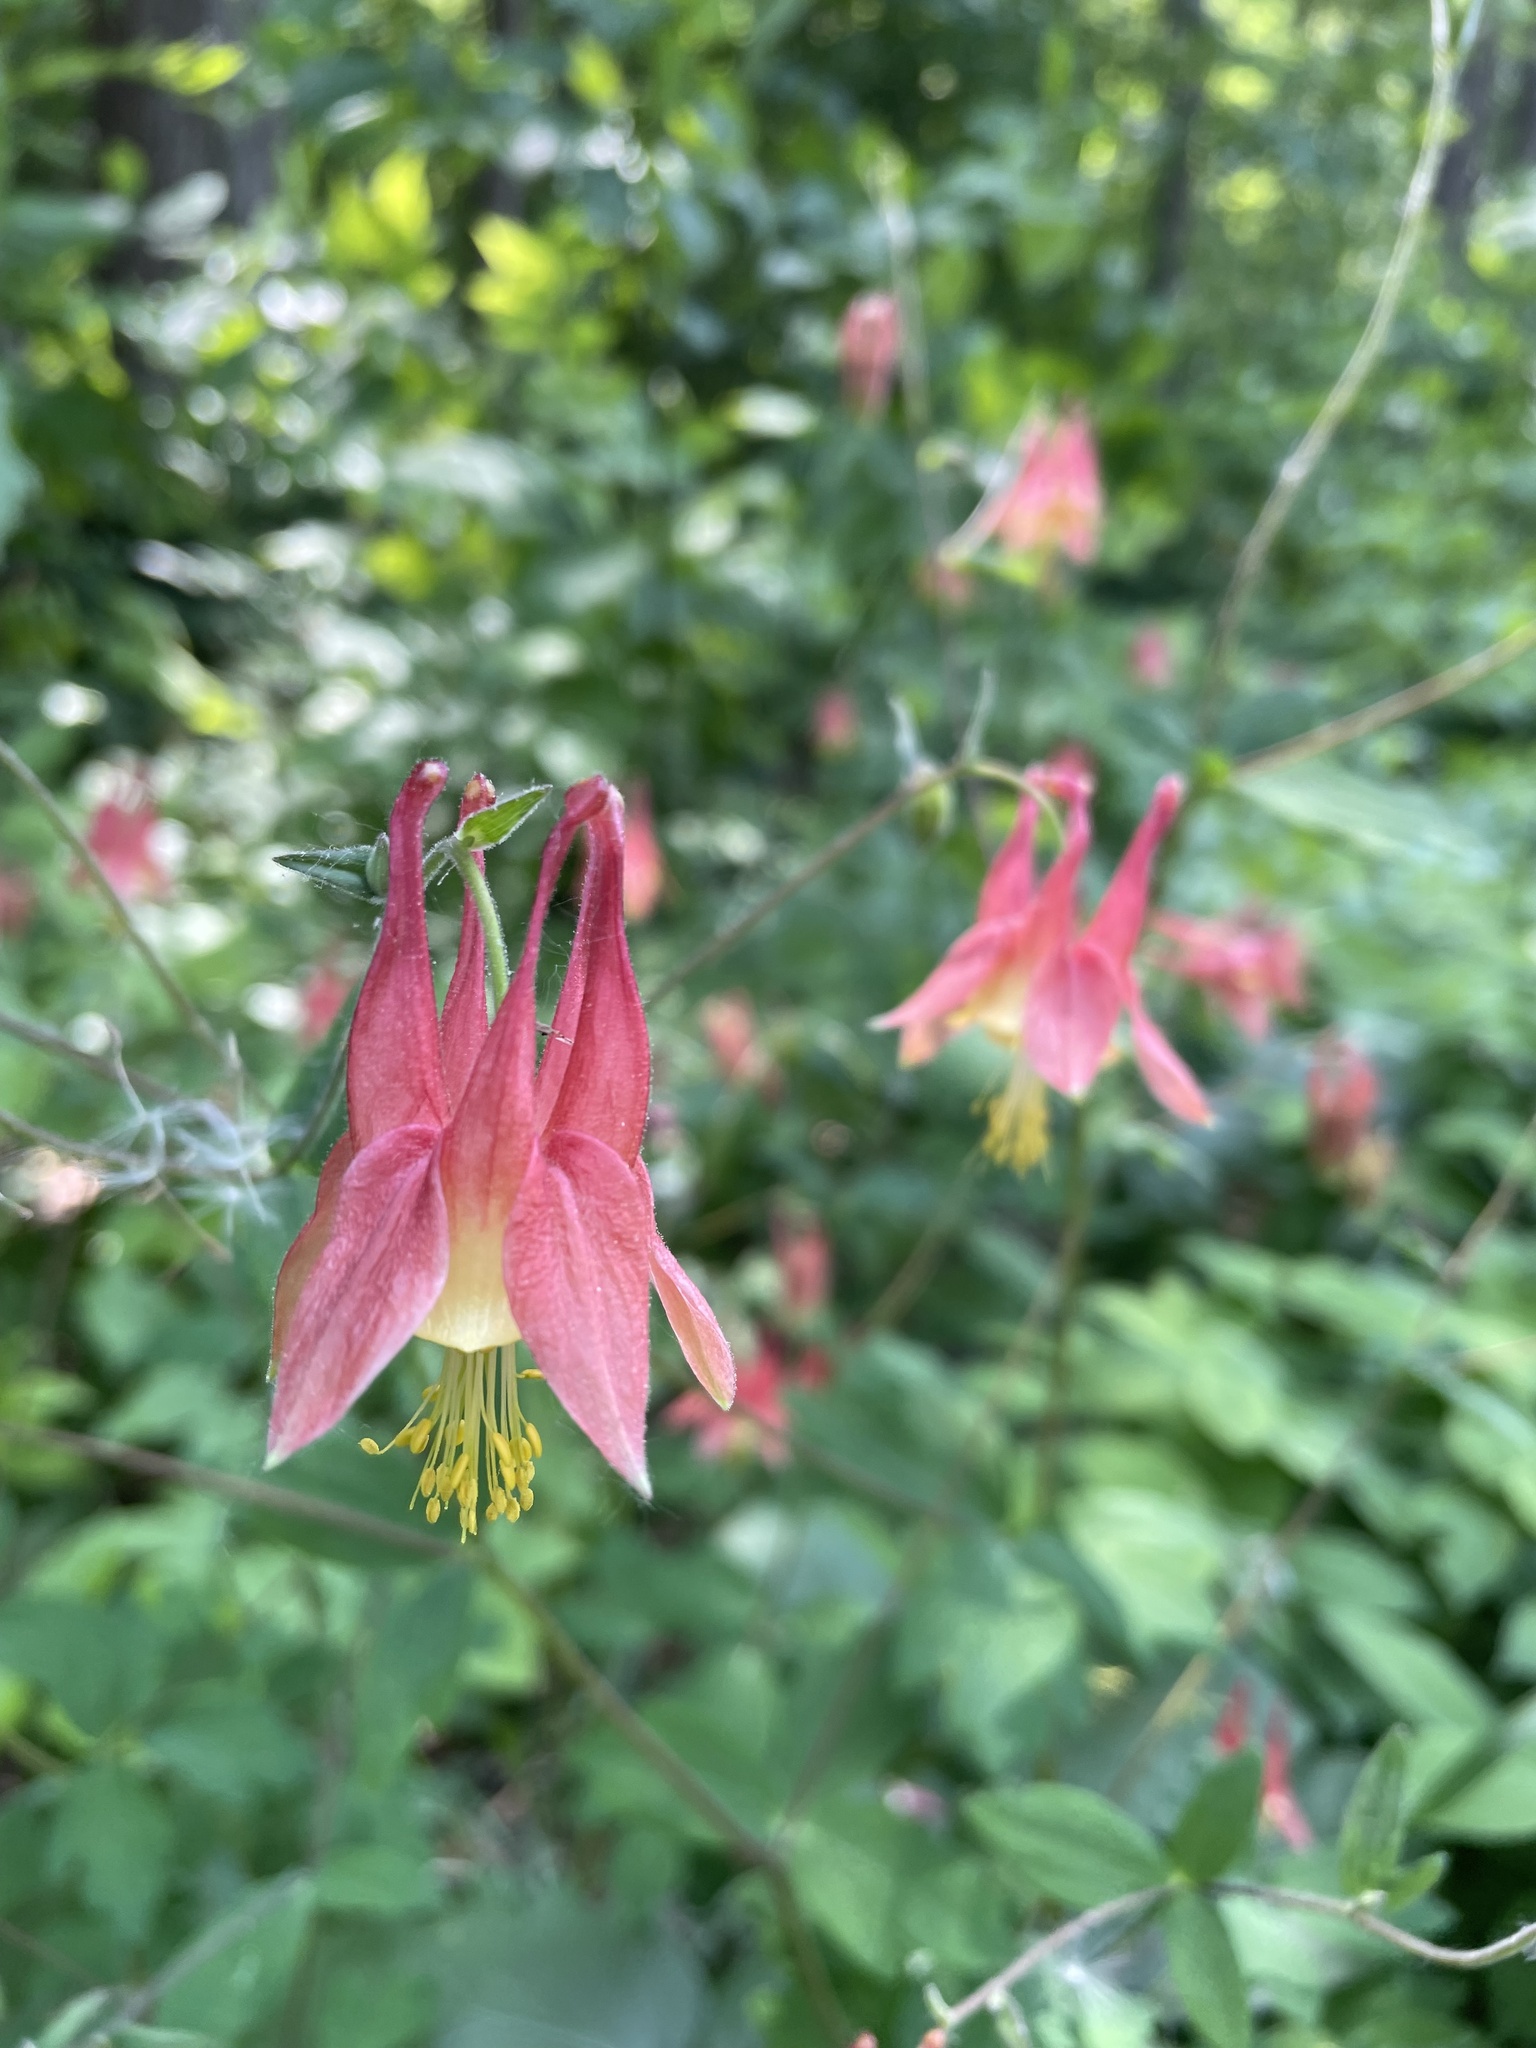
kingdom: Plantae
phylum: Tracheophyta
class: Magnoliopsida
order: Ranunculales
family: Ranunculaceae
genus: Aquilegia
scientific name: Aquilegia canadensis
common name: American columbine
